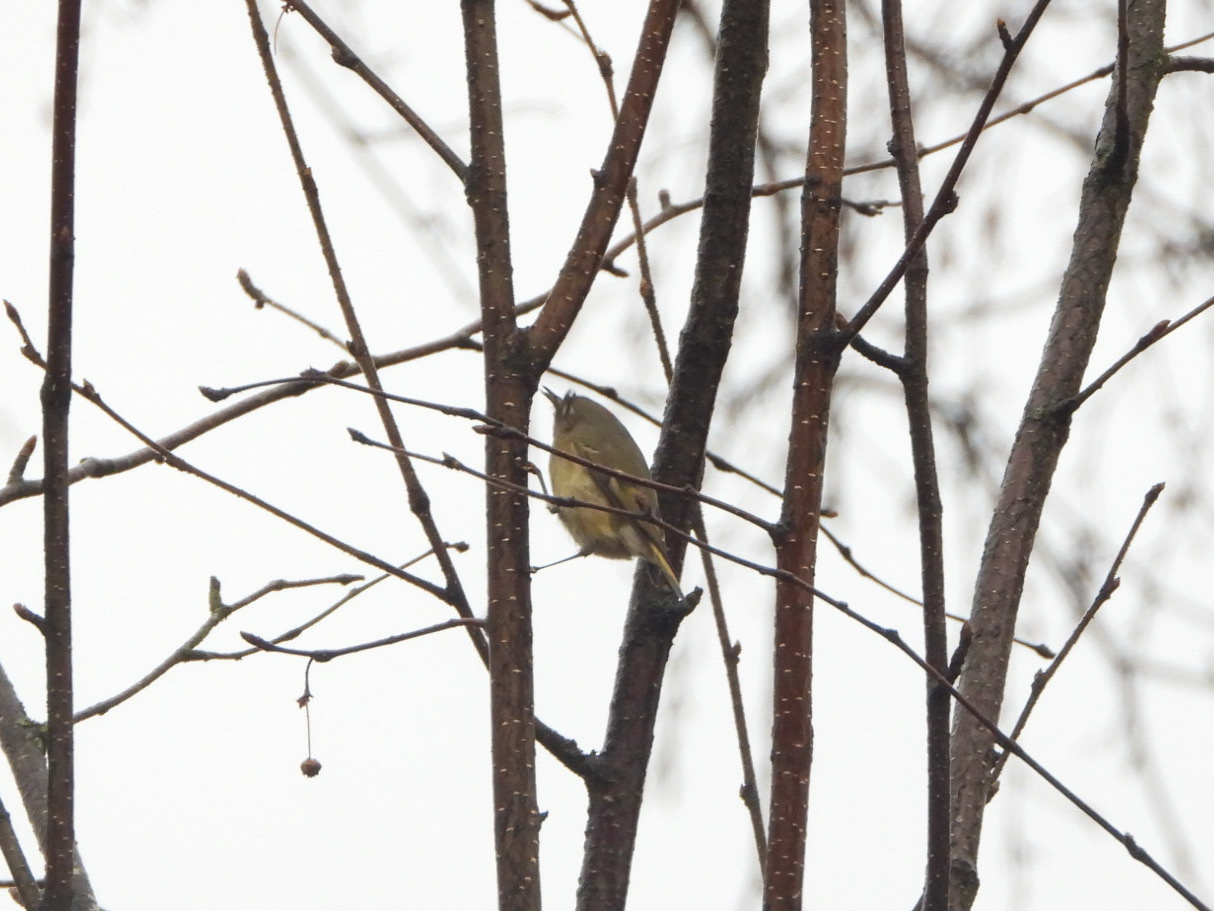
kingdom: Animalia
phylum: Chordata
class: Aves
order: Passeriformes
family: Regulidae
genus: Regulus
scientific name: Regulus calendula
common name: Ruby-crowned kinglet
